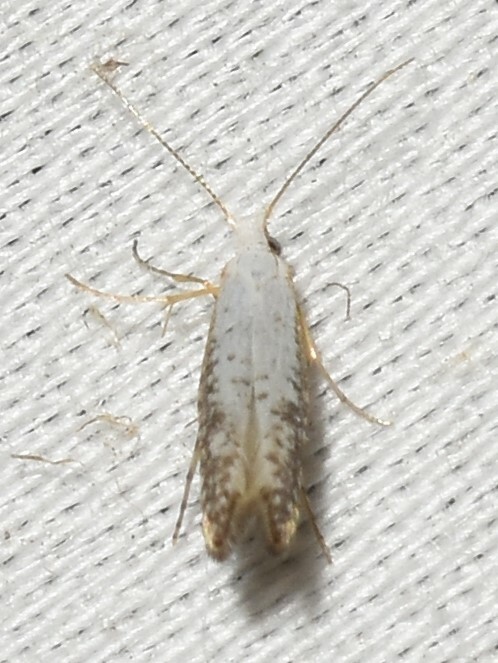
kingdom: Animalia
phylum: Arthropoda
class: Insecta
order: Lepidoptera
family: Argyresthiidae
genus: Argyresthia
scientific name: Argyresthia subreticulata
